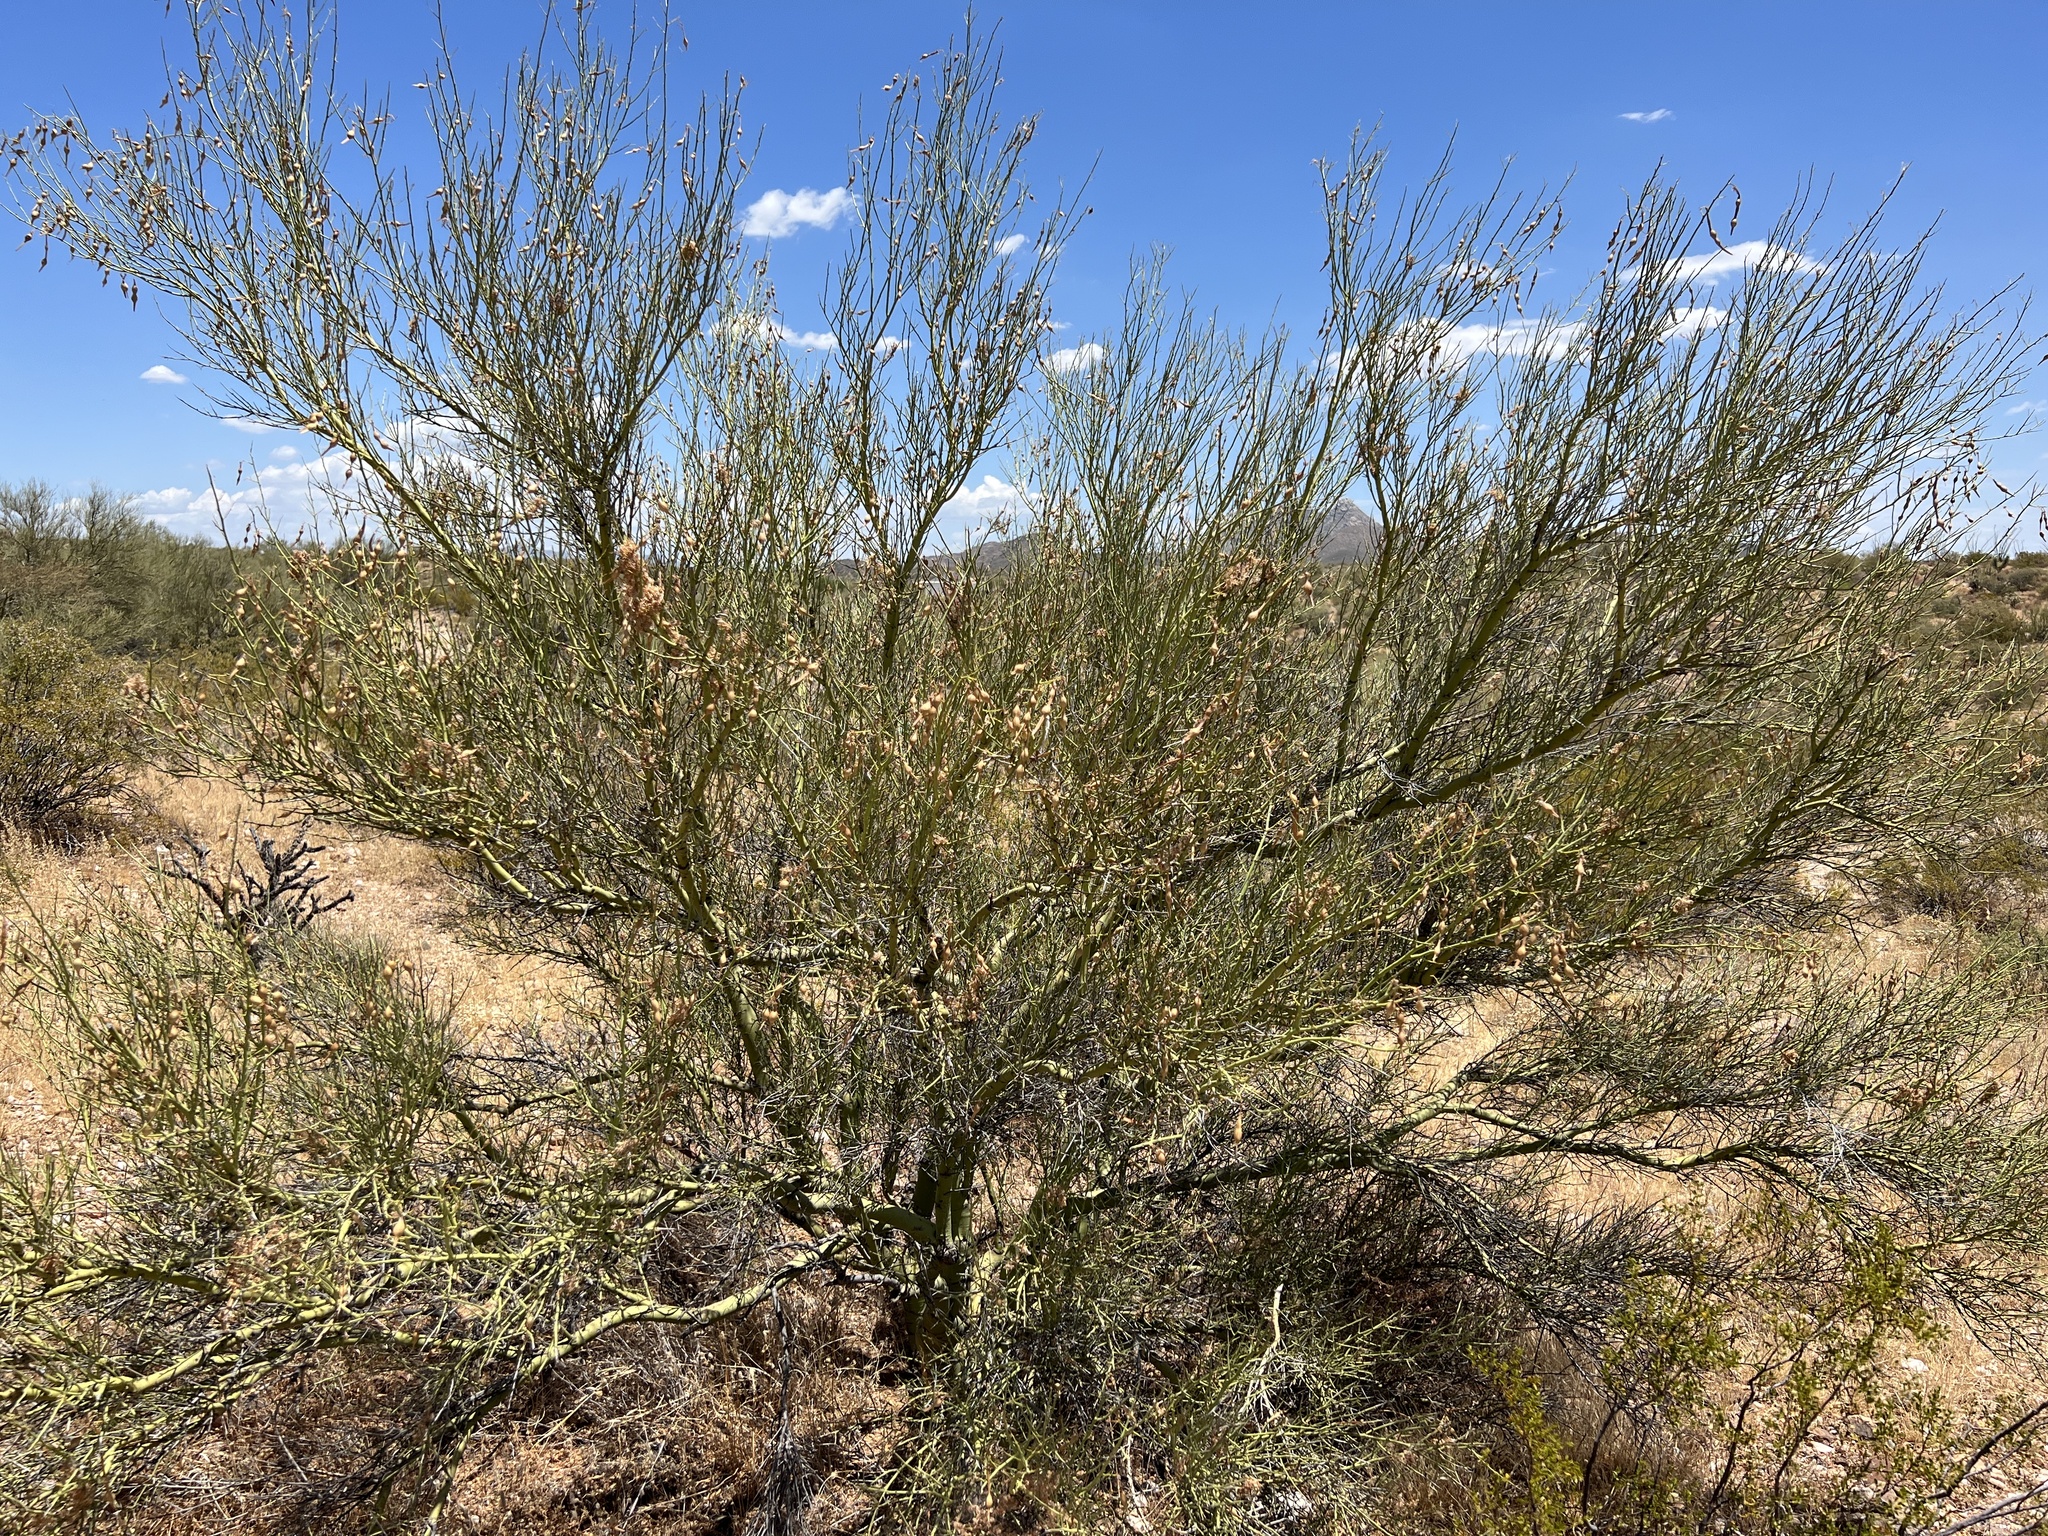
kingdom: Plantae
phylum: Tracheophyta
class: Magnoliopsida
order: Fabales
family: Fabaceae
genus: Parkinsonia
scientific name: Parkinsonia microphylla
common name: Yellow paloverde
